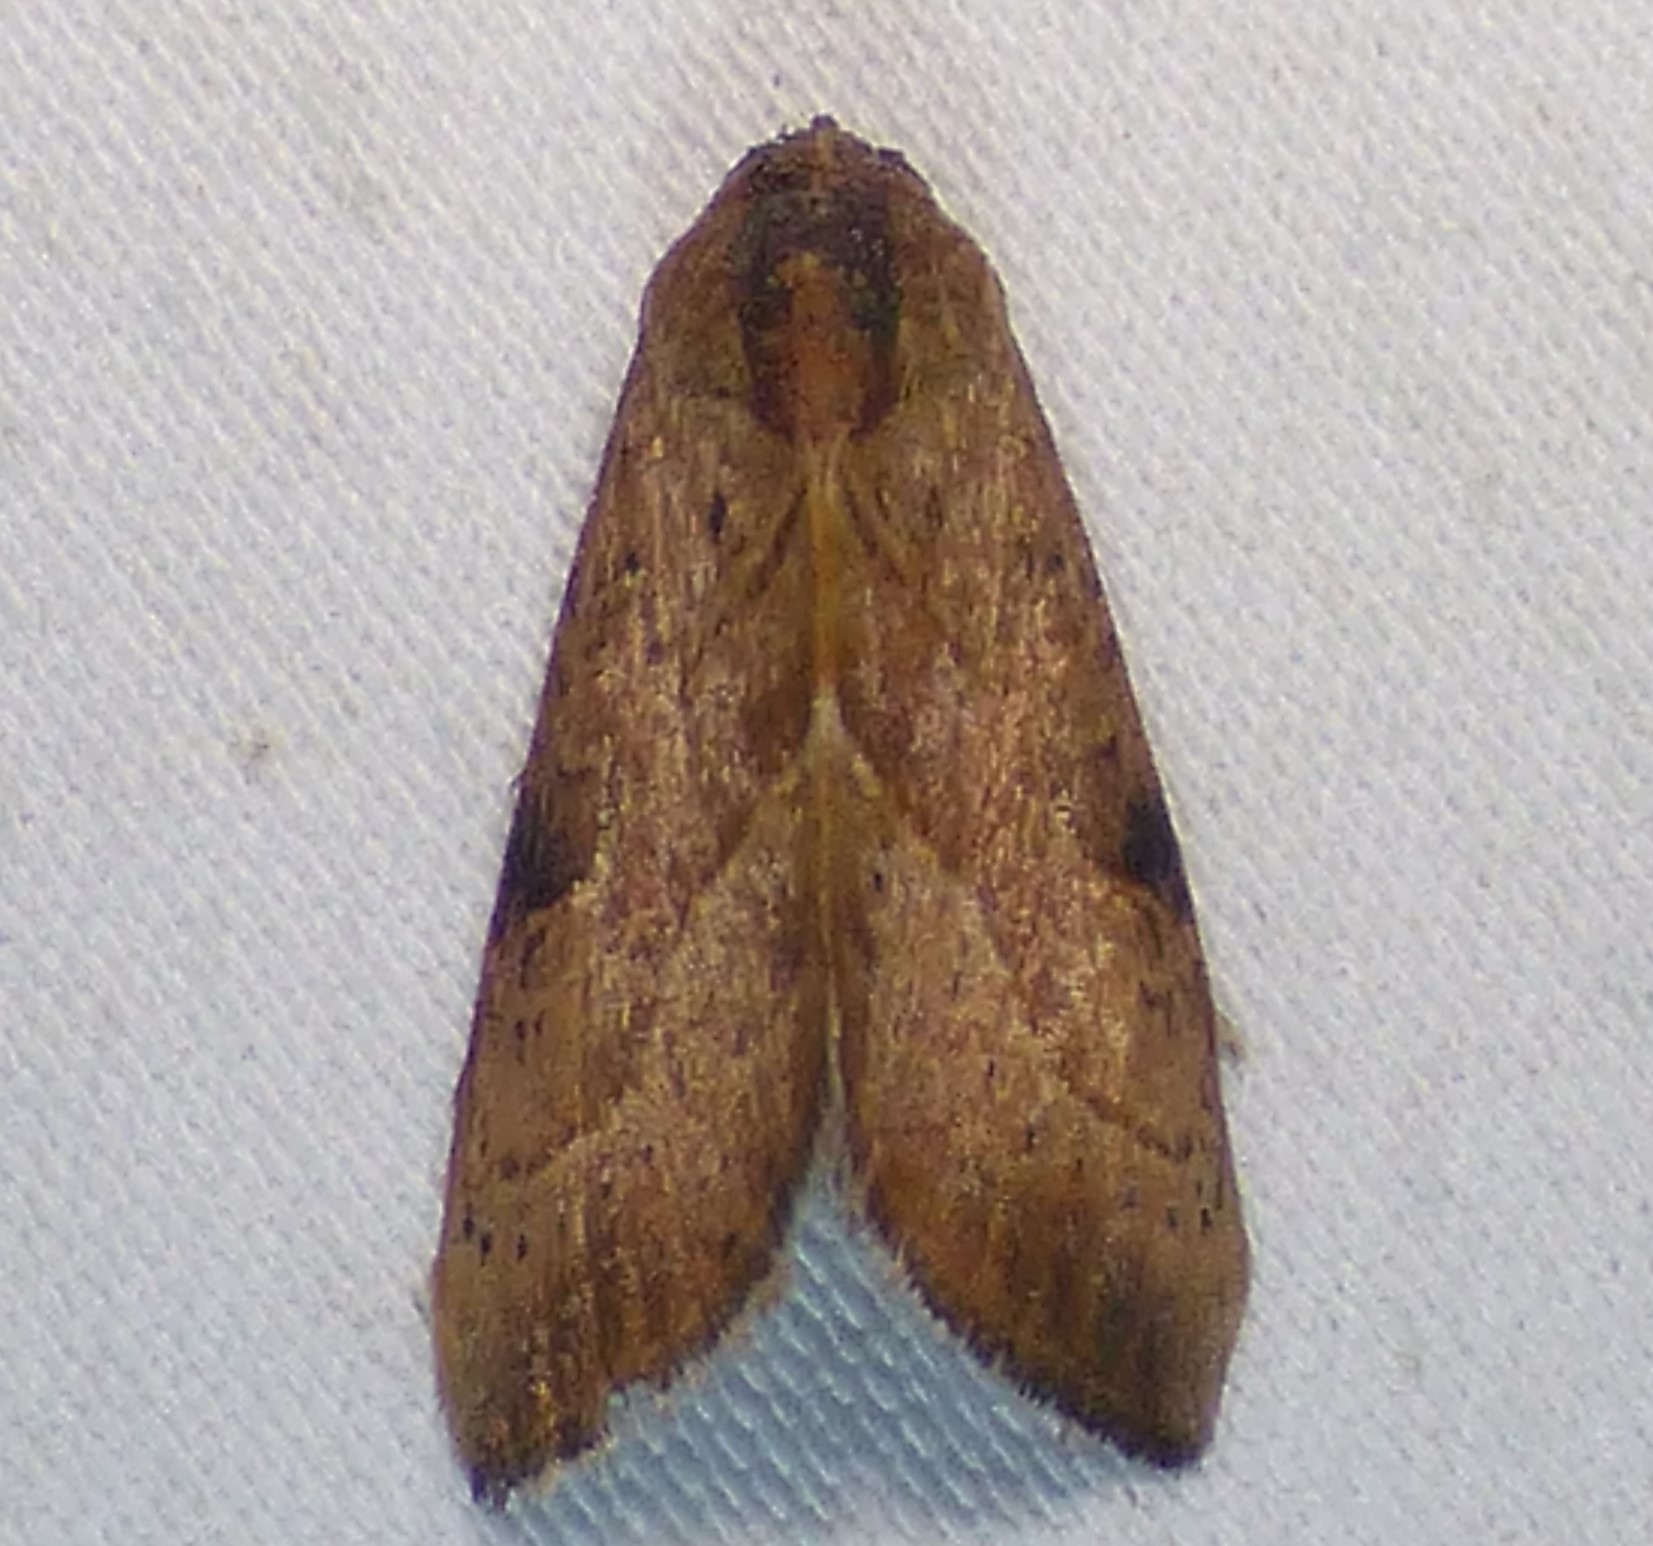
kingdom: Animalia
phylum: Arthropoda
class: Insecta
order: Lepidoptera
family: Noctuidae
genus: Galgula
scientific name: Galgula partita
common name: Wedgeling
